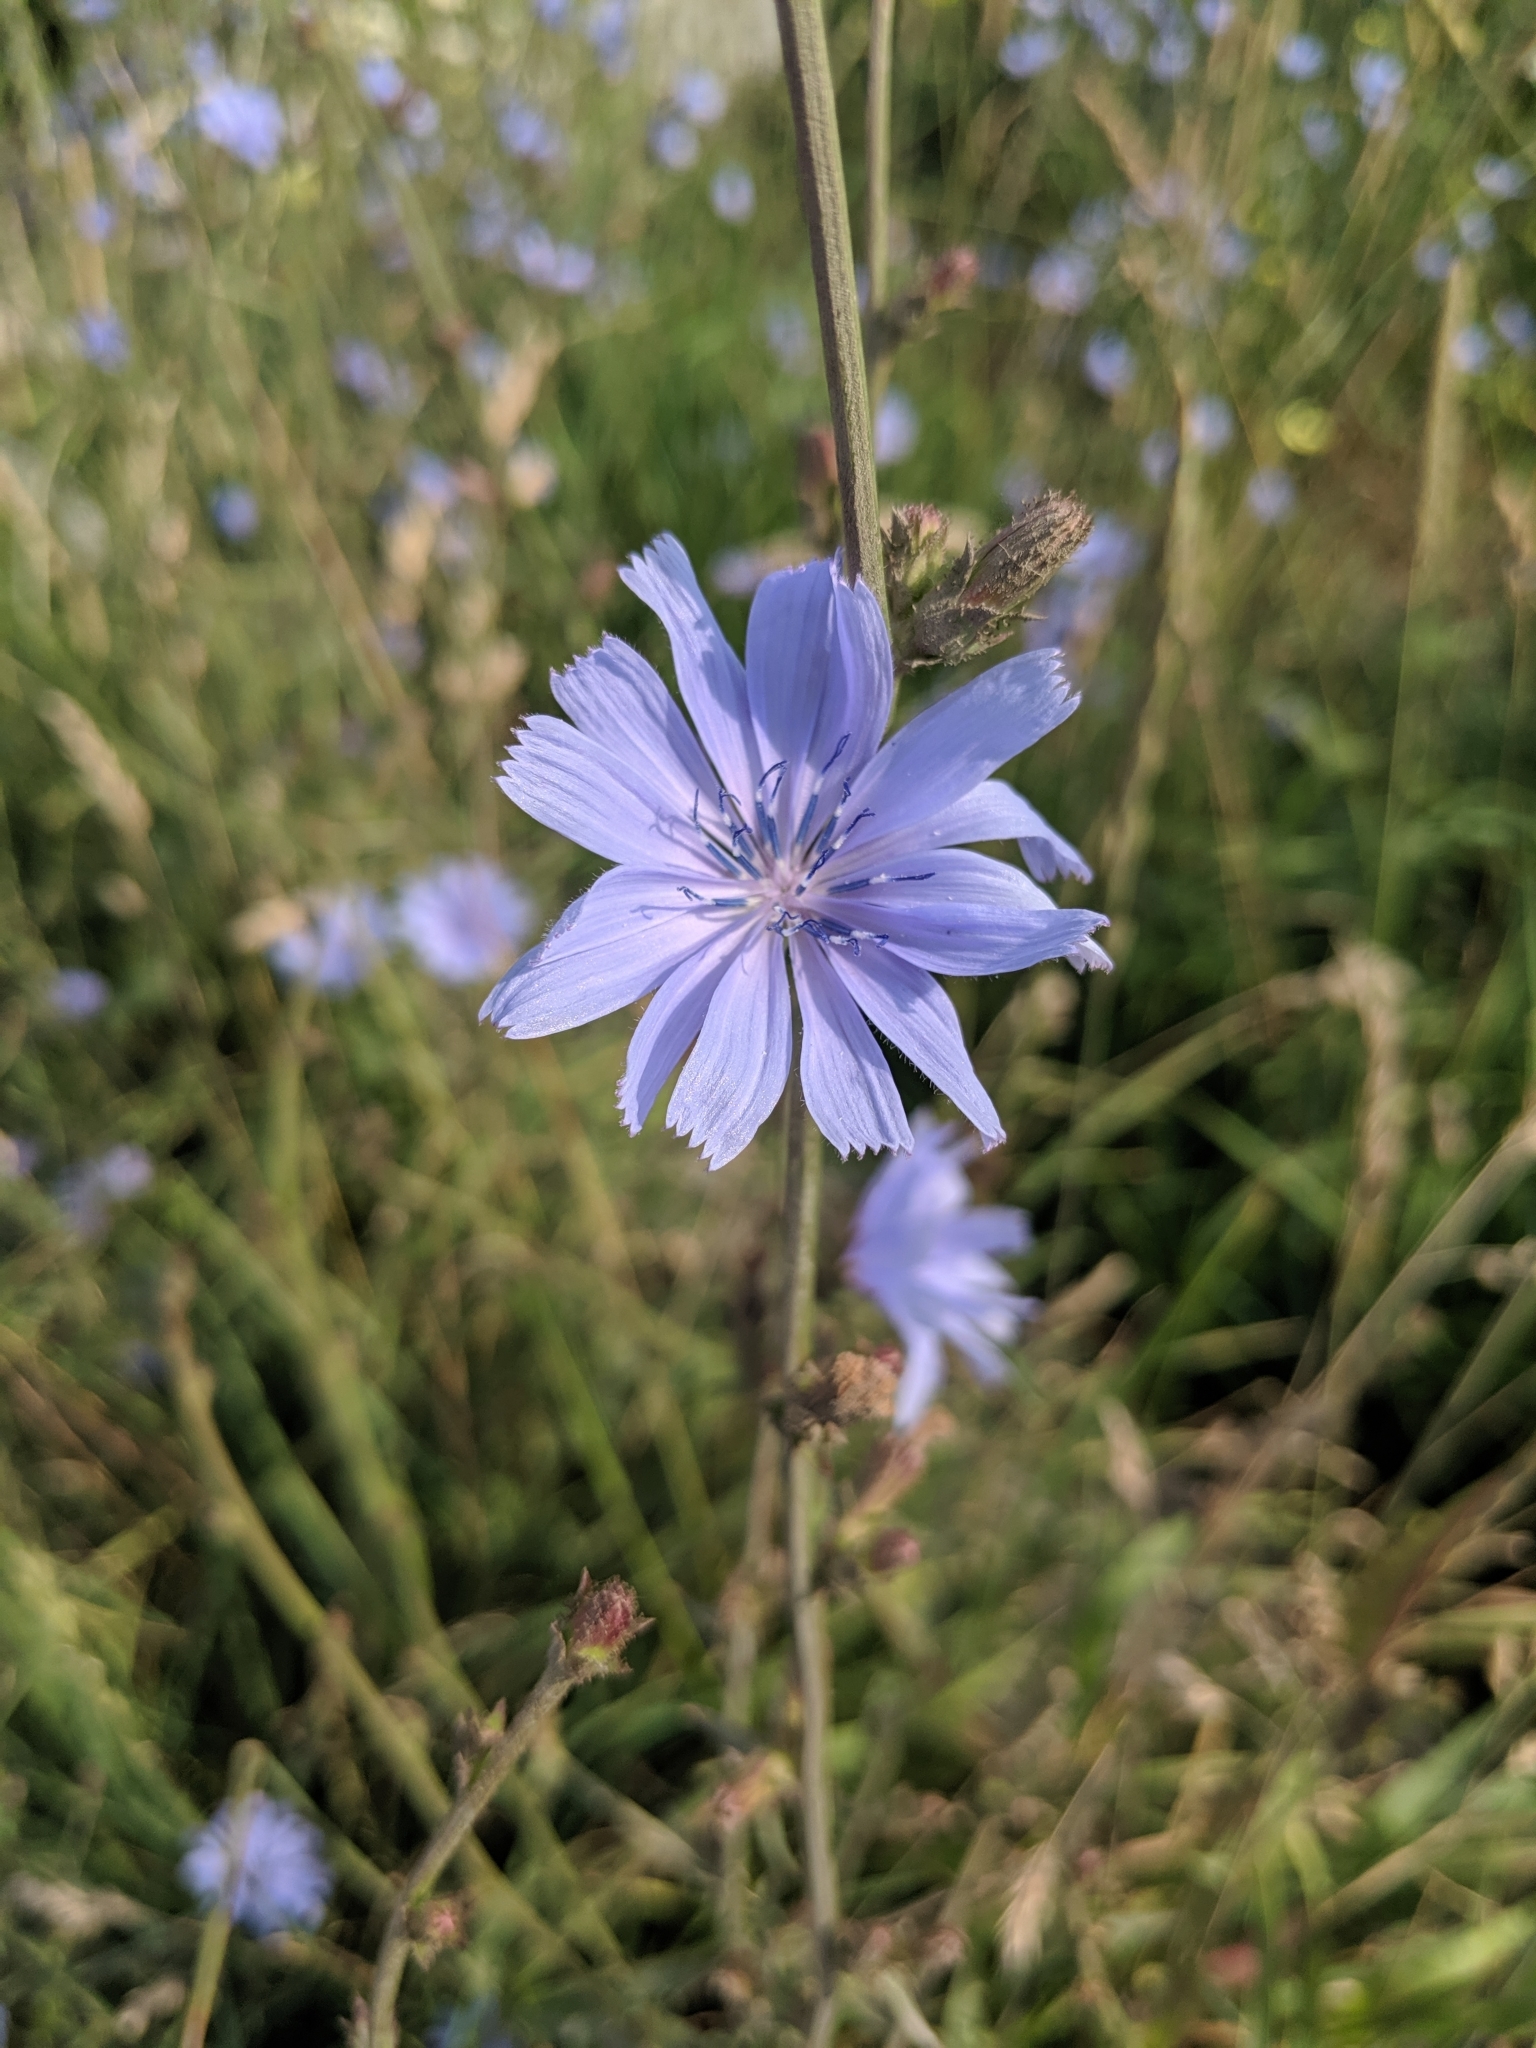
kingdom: Plantae
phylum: Tracheophyta
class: Magnoliopsida
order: Asterales
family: Asteraceae
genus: Cichorium
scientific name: Cichorium intybus
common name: Chicory
